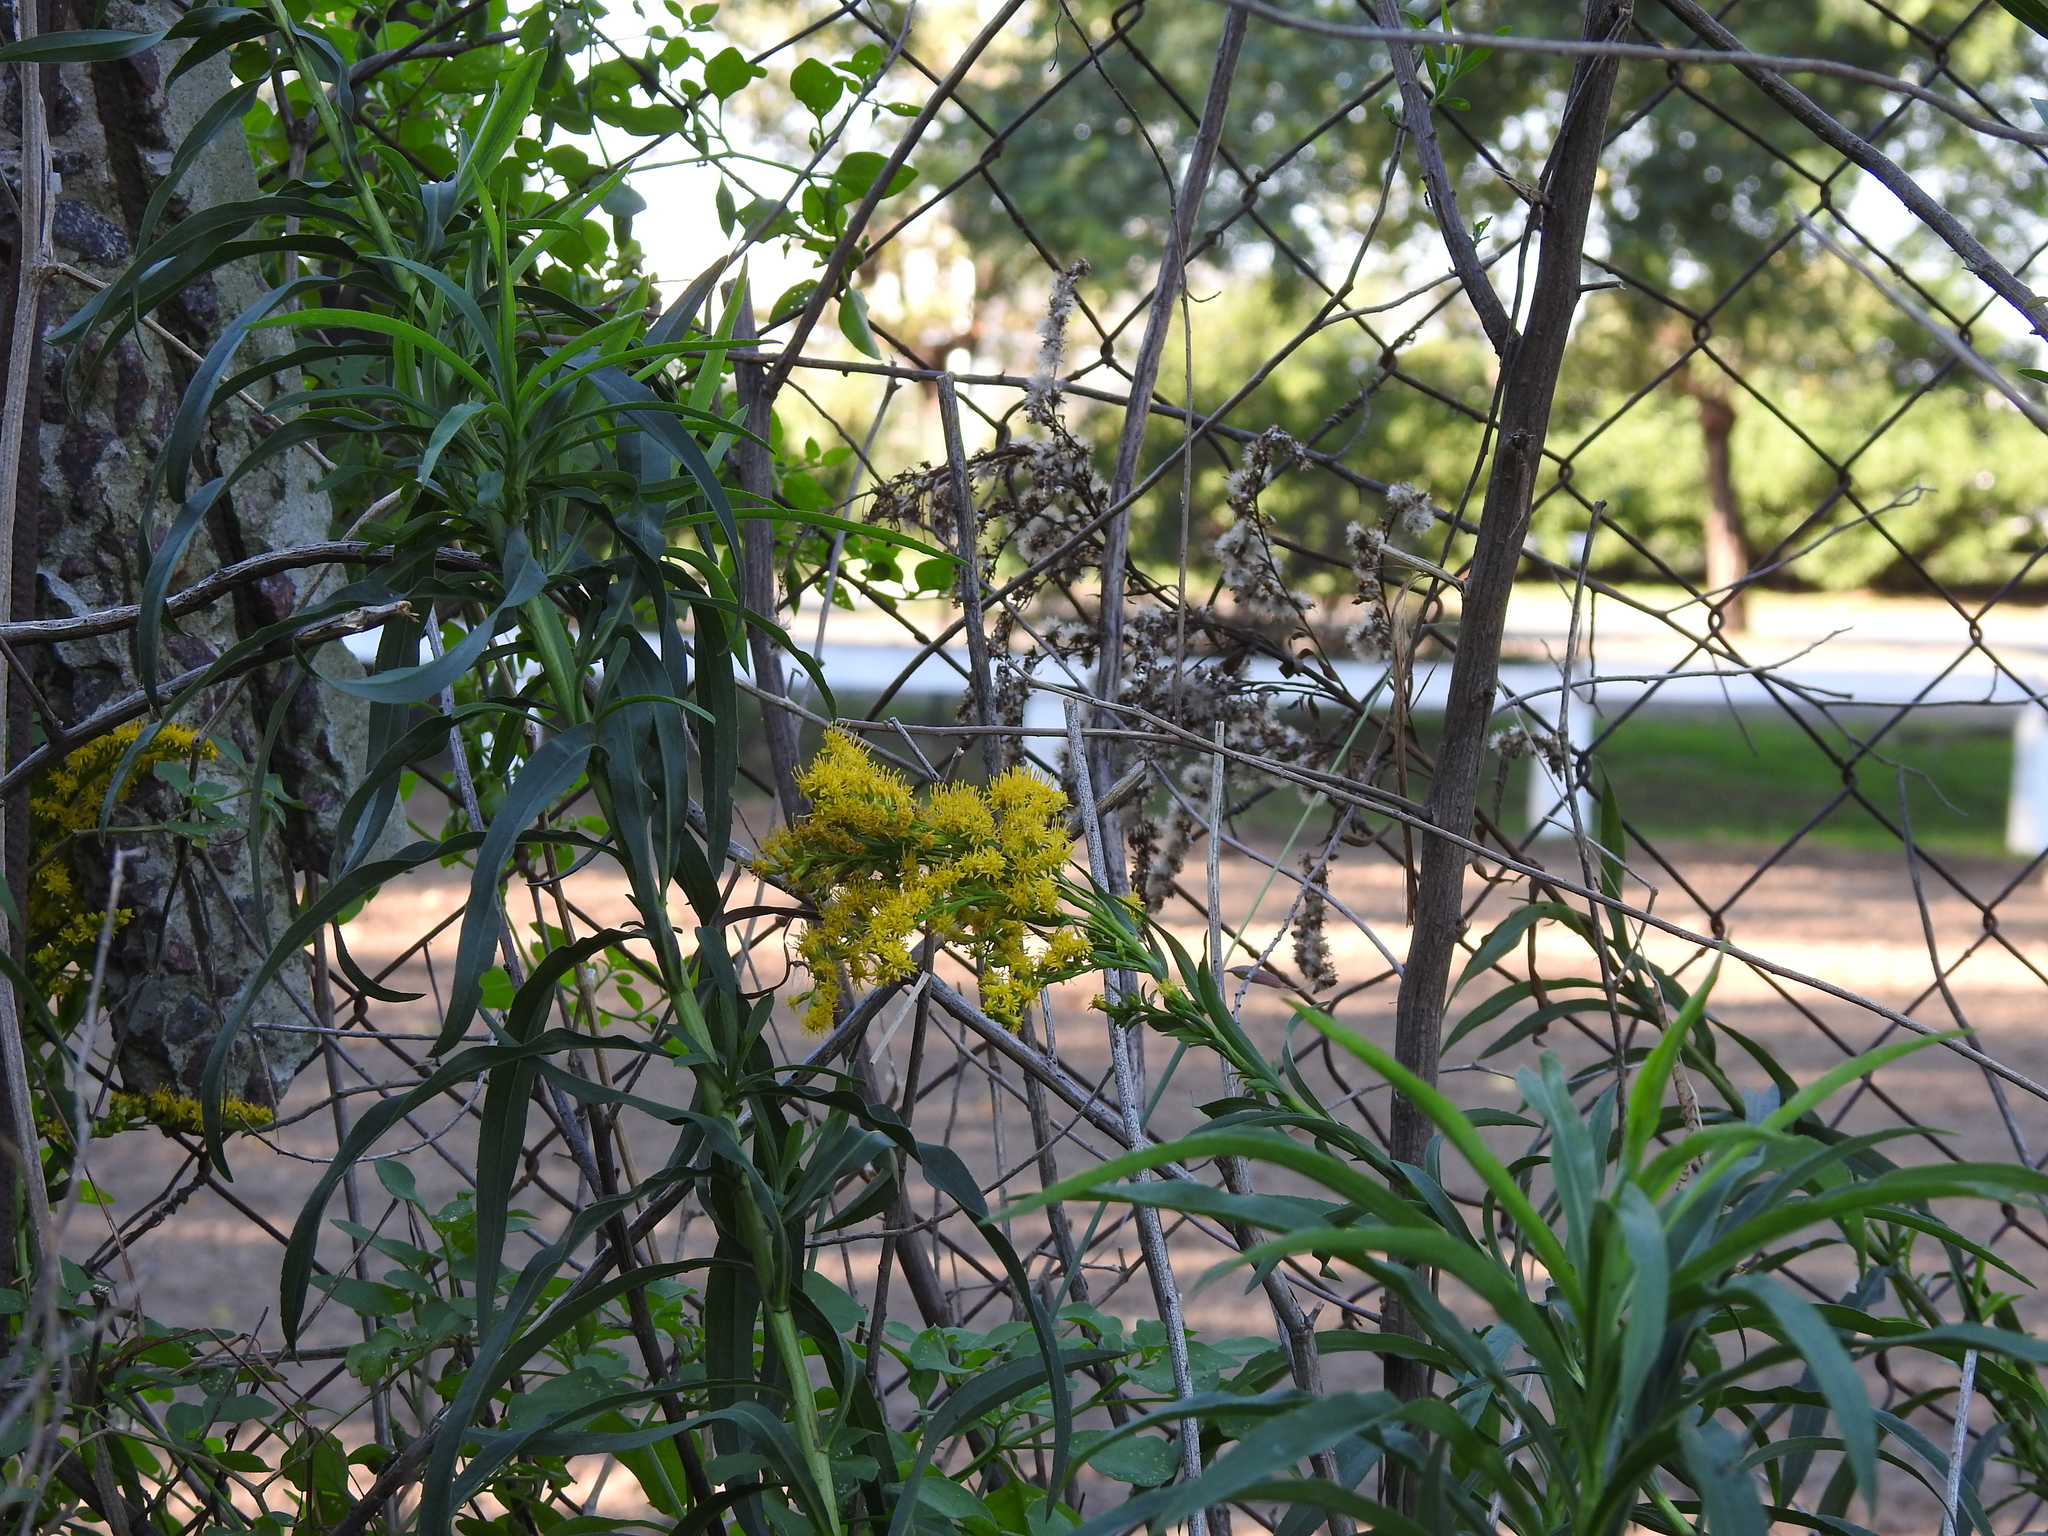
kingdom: Plantae
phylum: Tracheophyta
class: Magnoliopsida
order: Asterales
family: Asteraceae
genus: Solidago
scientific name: Solidago chilensis
